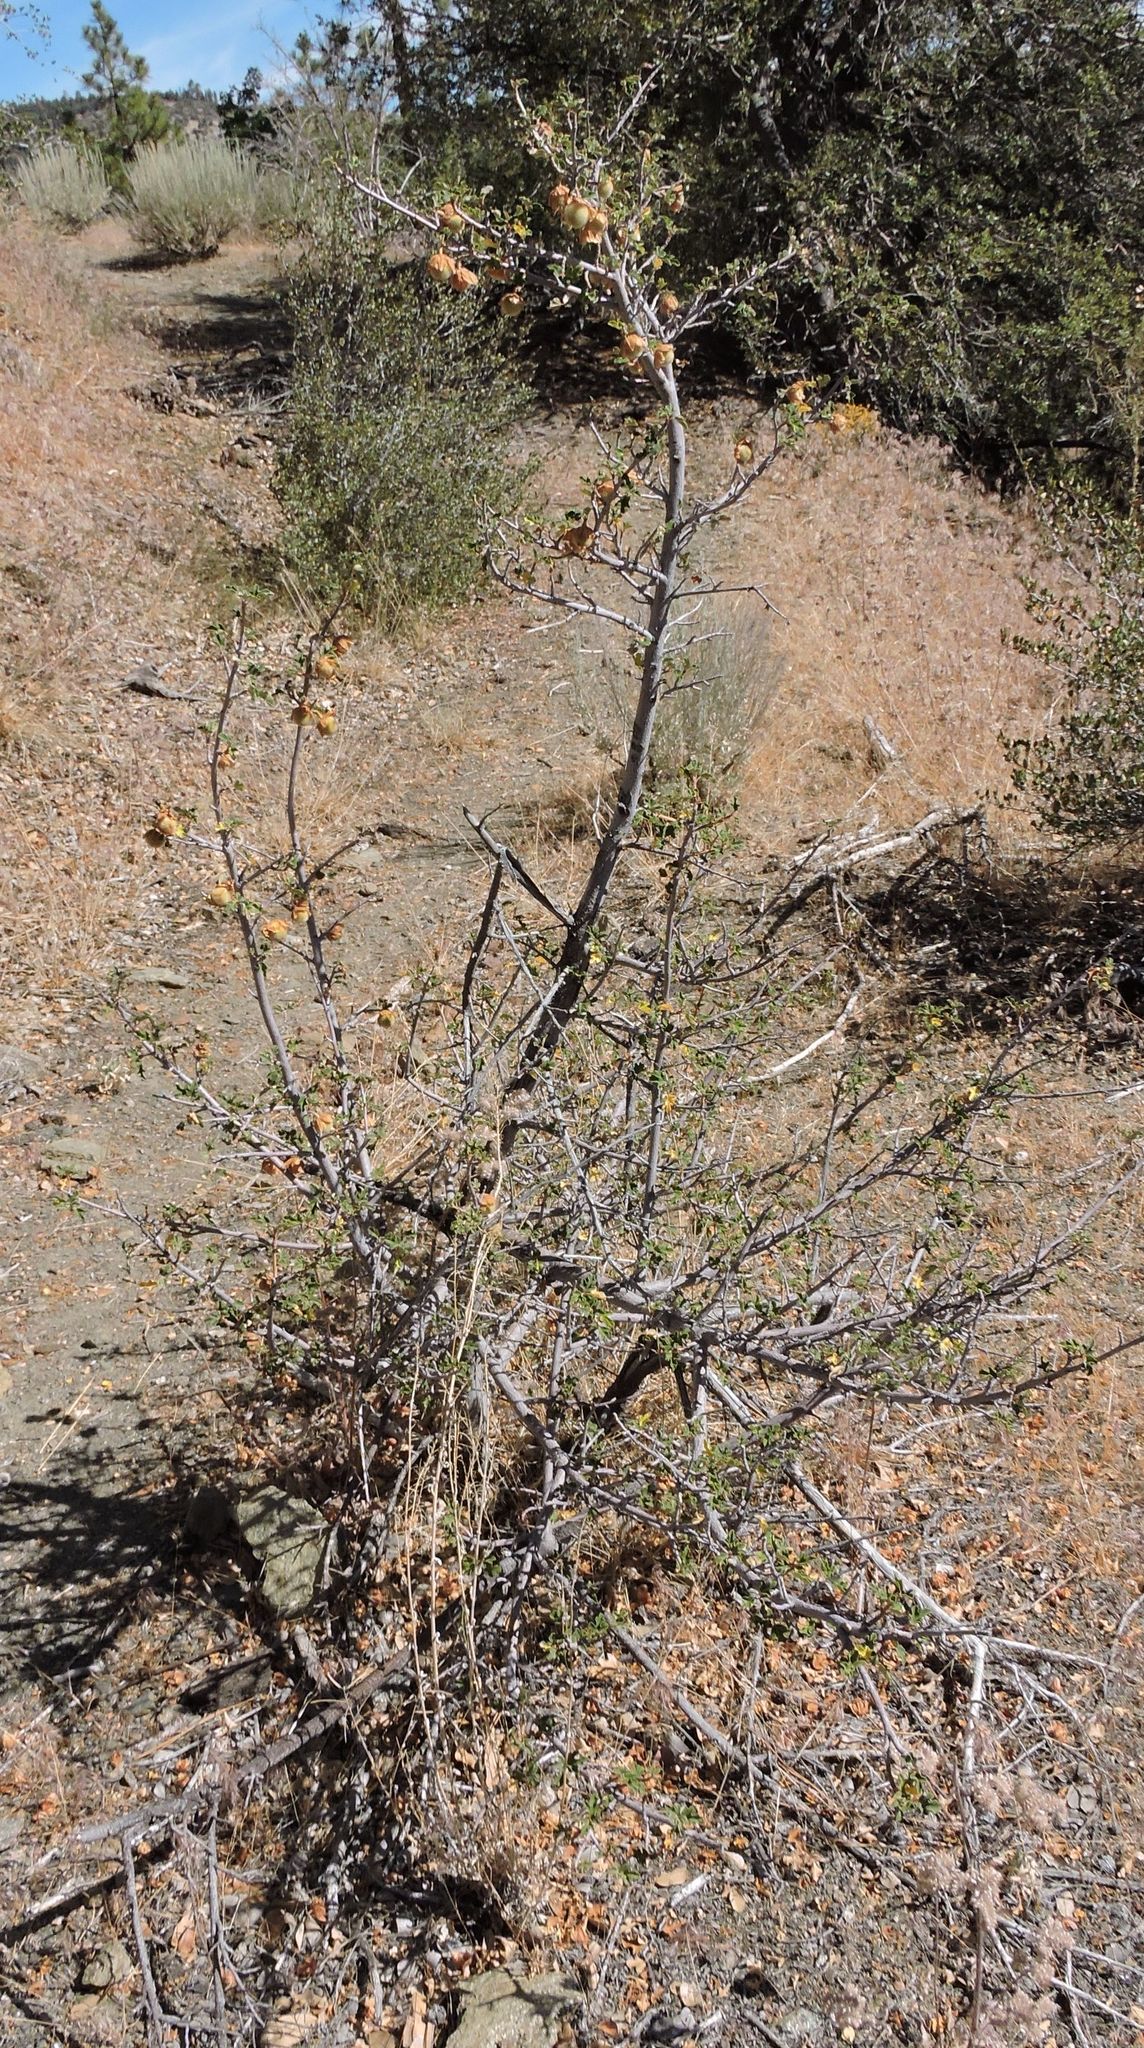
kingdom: Plantae
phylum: Tracheophyta
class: Magnoliopsida
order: Malvales
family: Malvaceae
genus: Fremontodendron
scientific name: Fremontodendron californicum
